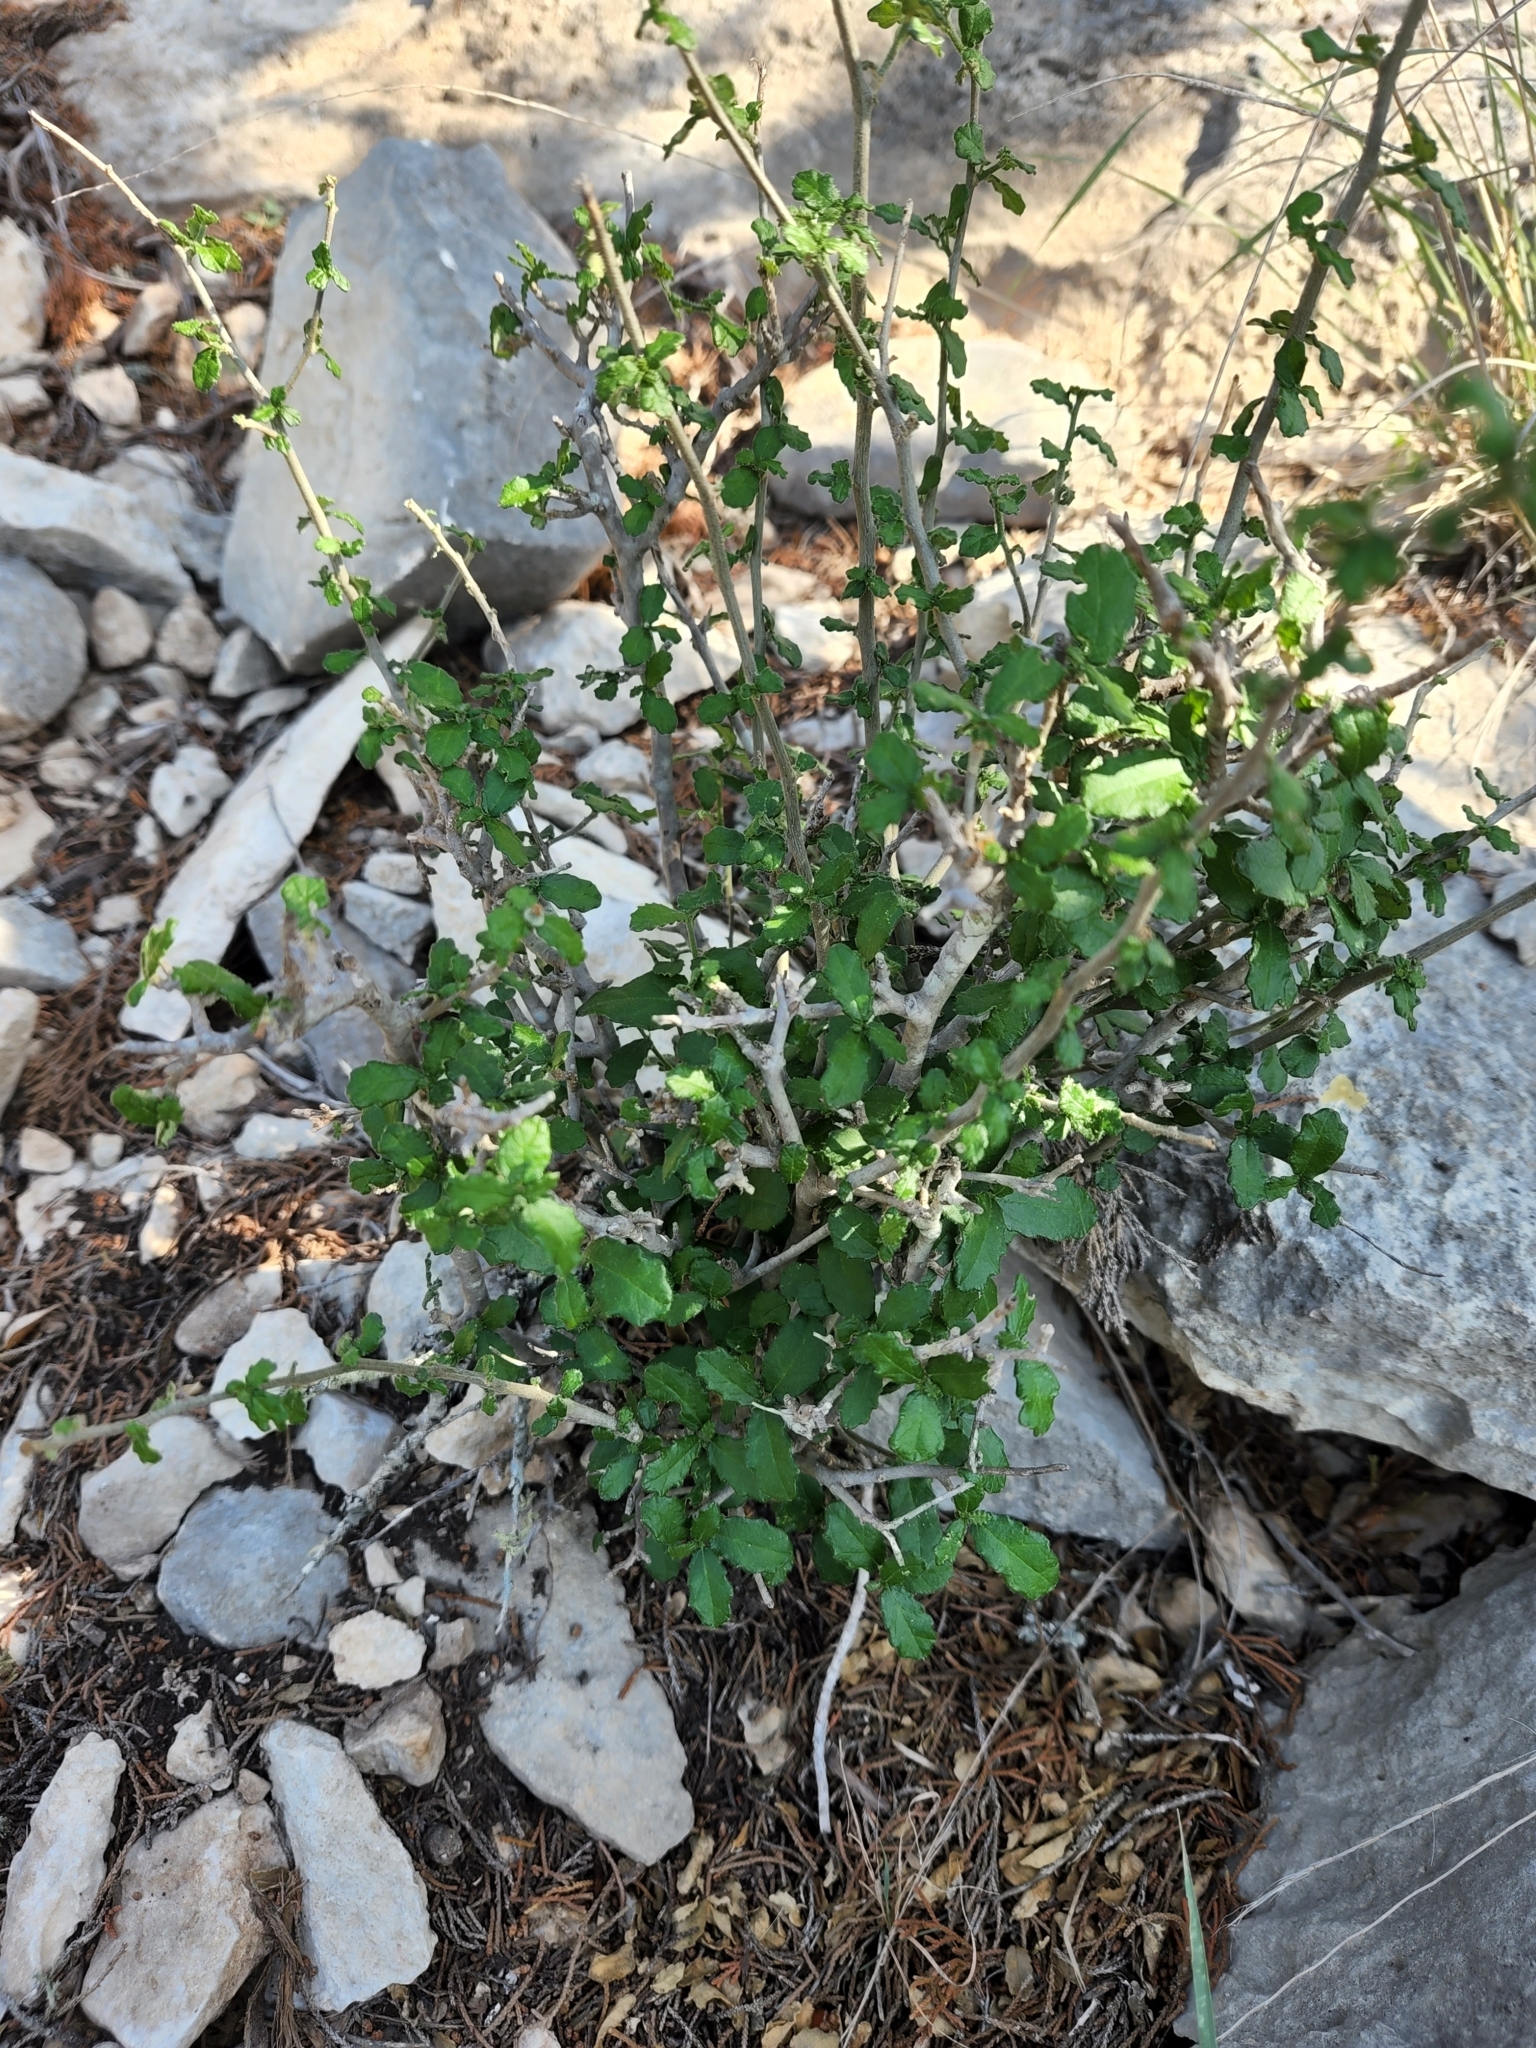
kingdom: Plantae
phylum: Tracheophyta
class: Magnoliopsida
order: Malpighiales
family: Euphorbiaceae
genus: Bernardia
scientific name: Bernardia myricifolia
